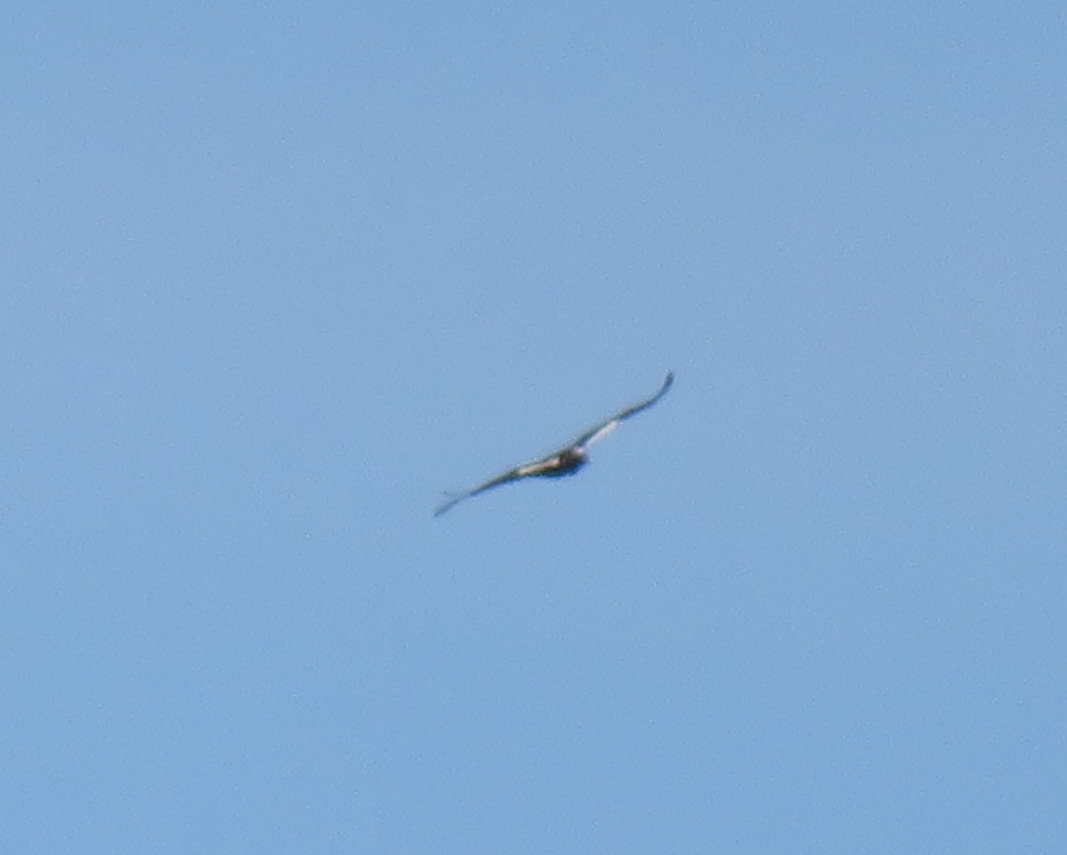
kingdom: Animalia
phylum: Chordata
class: Aves
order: Accipitriformes
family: Accipitridae
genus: Aquila
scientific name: Aquila adalberti
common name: Spanish imperial eagle
